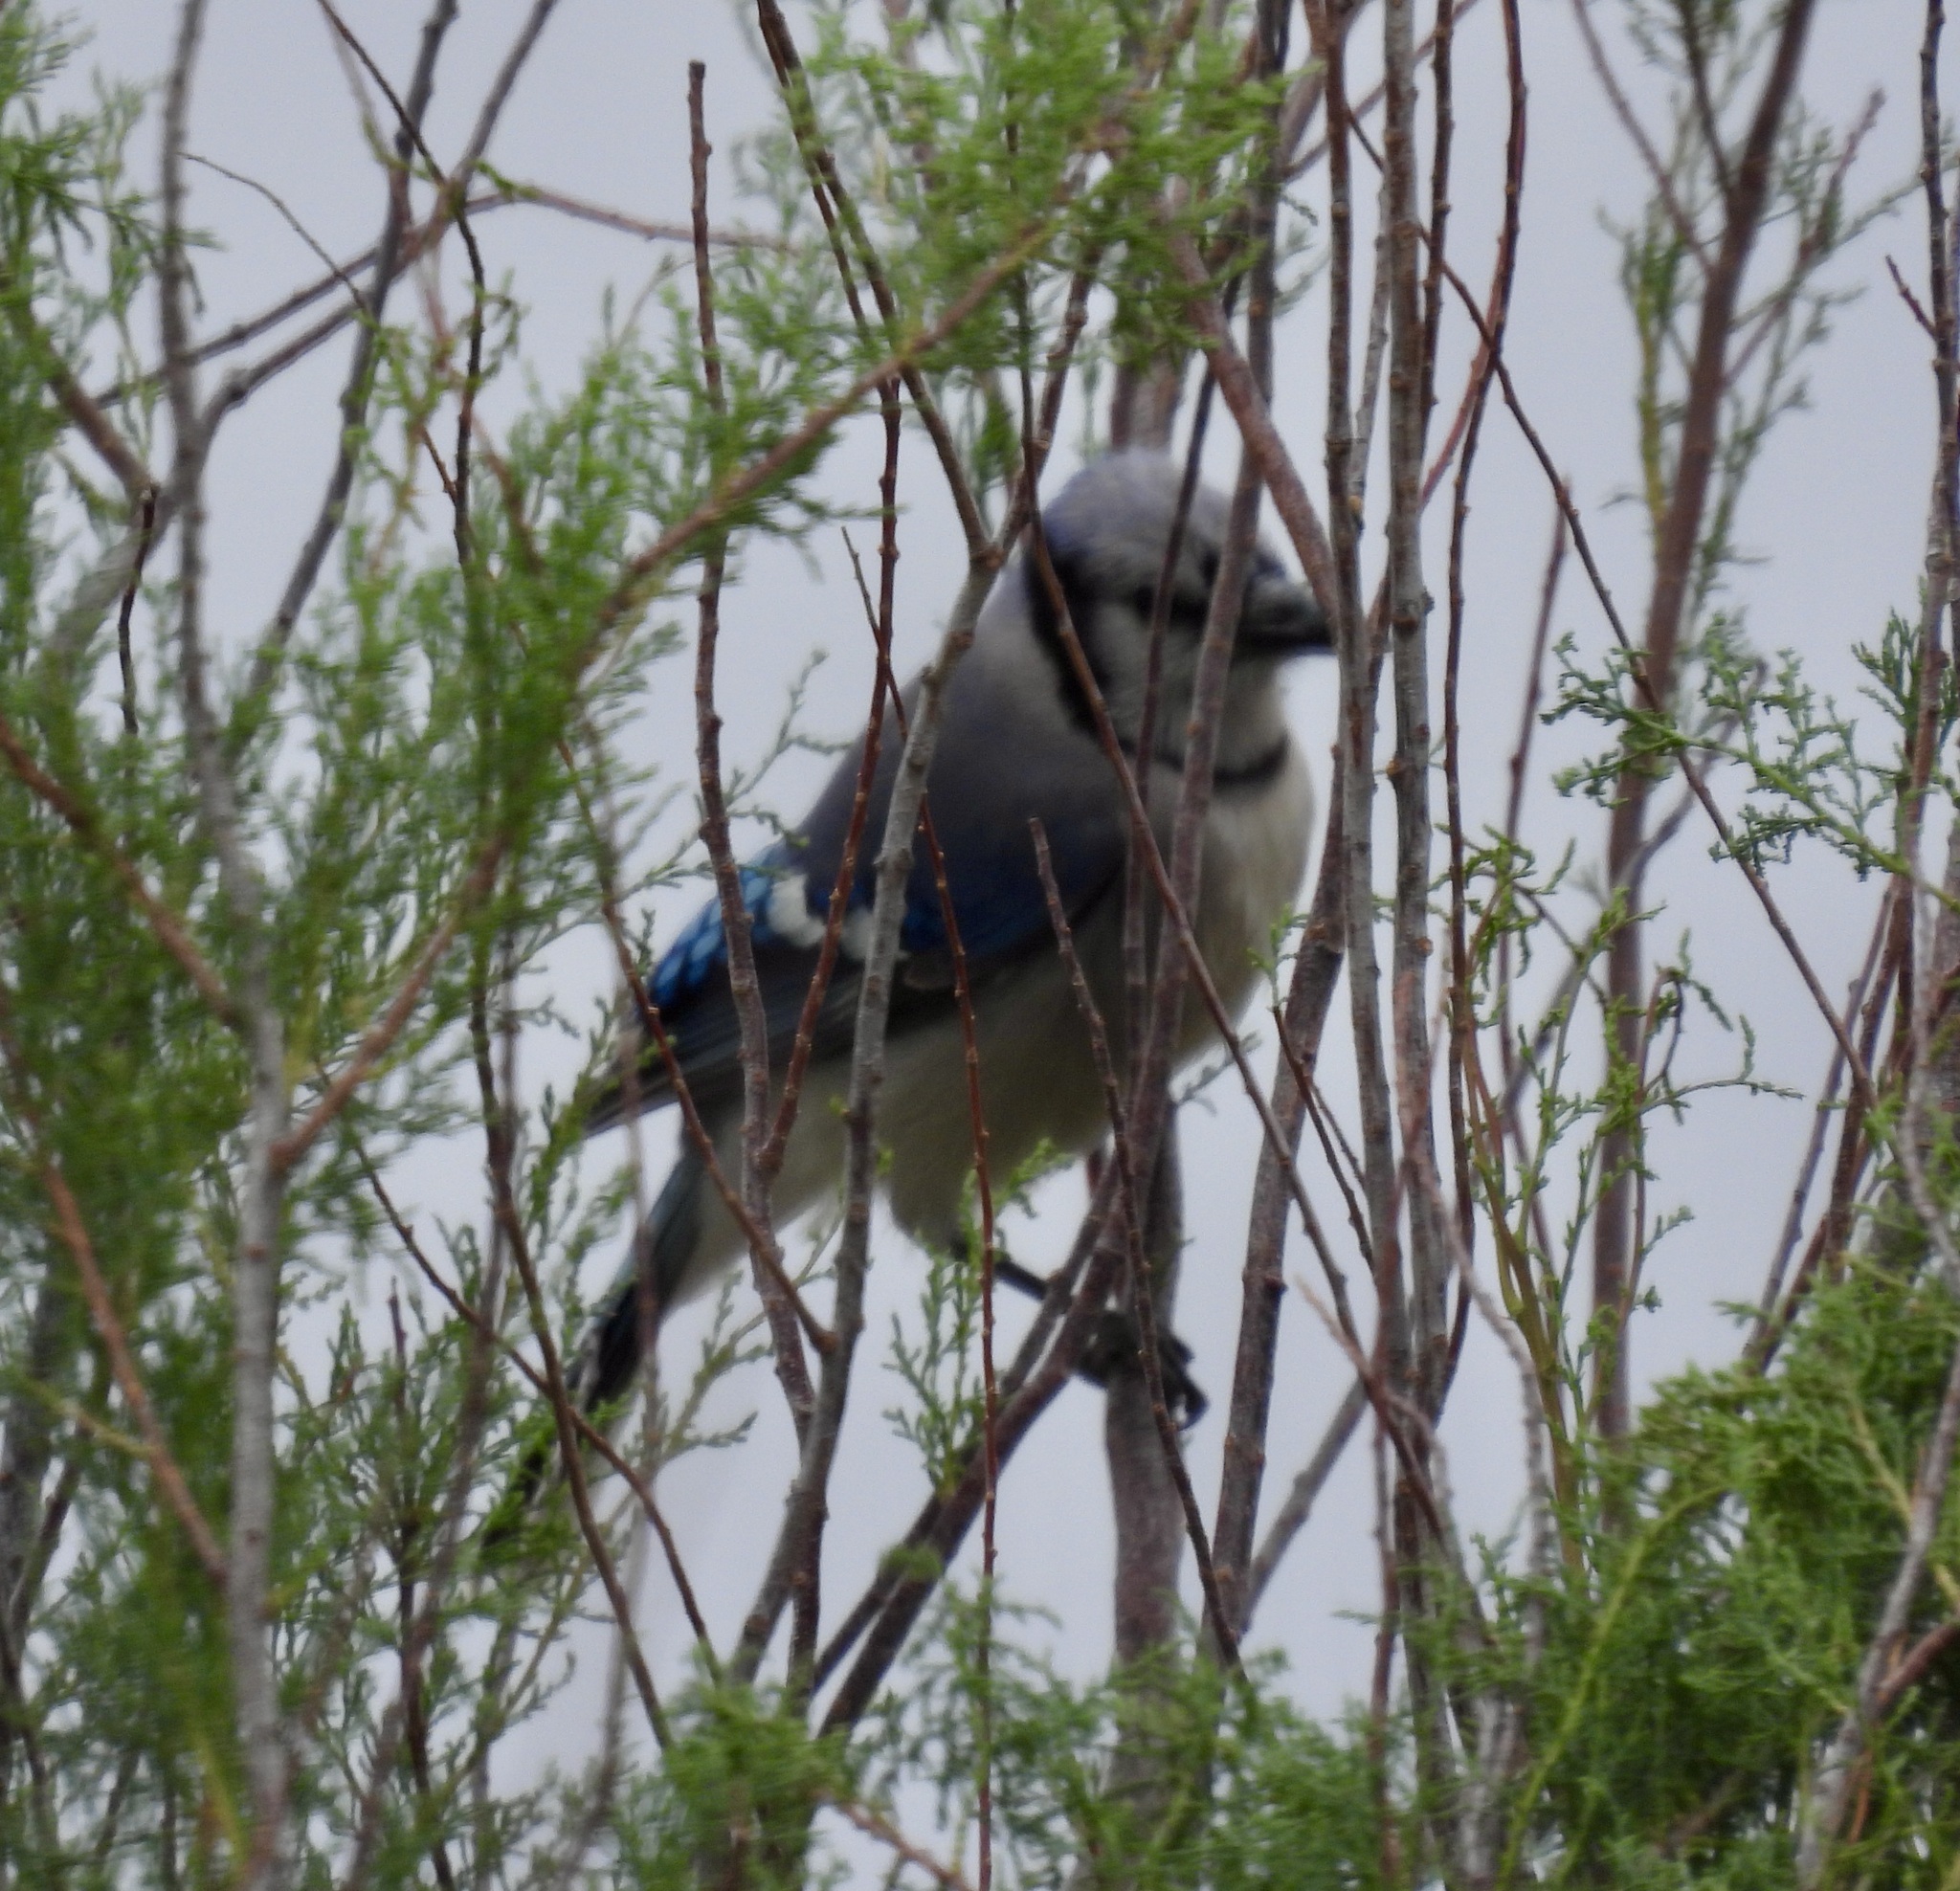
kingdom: Animalia
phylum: Chordata
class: Aves
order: Passeriformes
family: Corvidae
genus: Cyanocitta
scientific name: Cyanocitta cristata
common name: Blue jay
